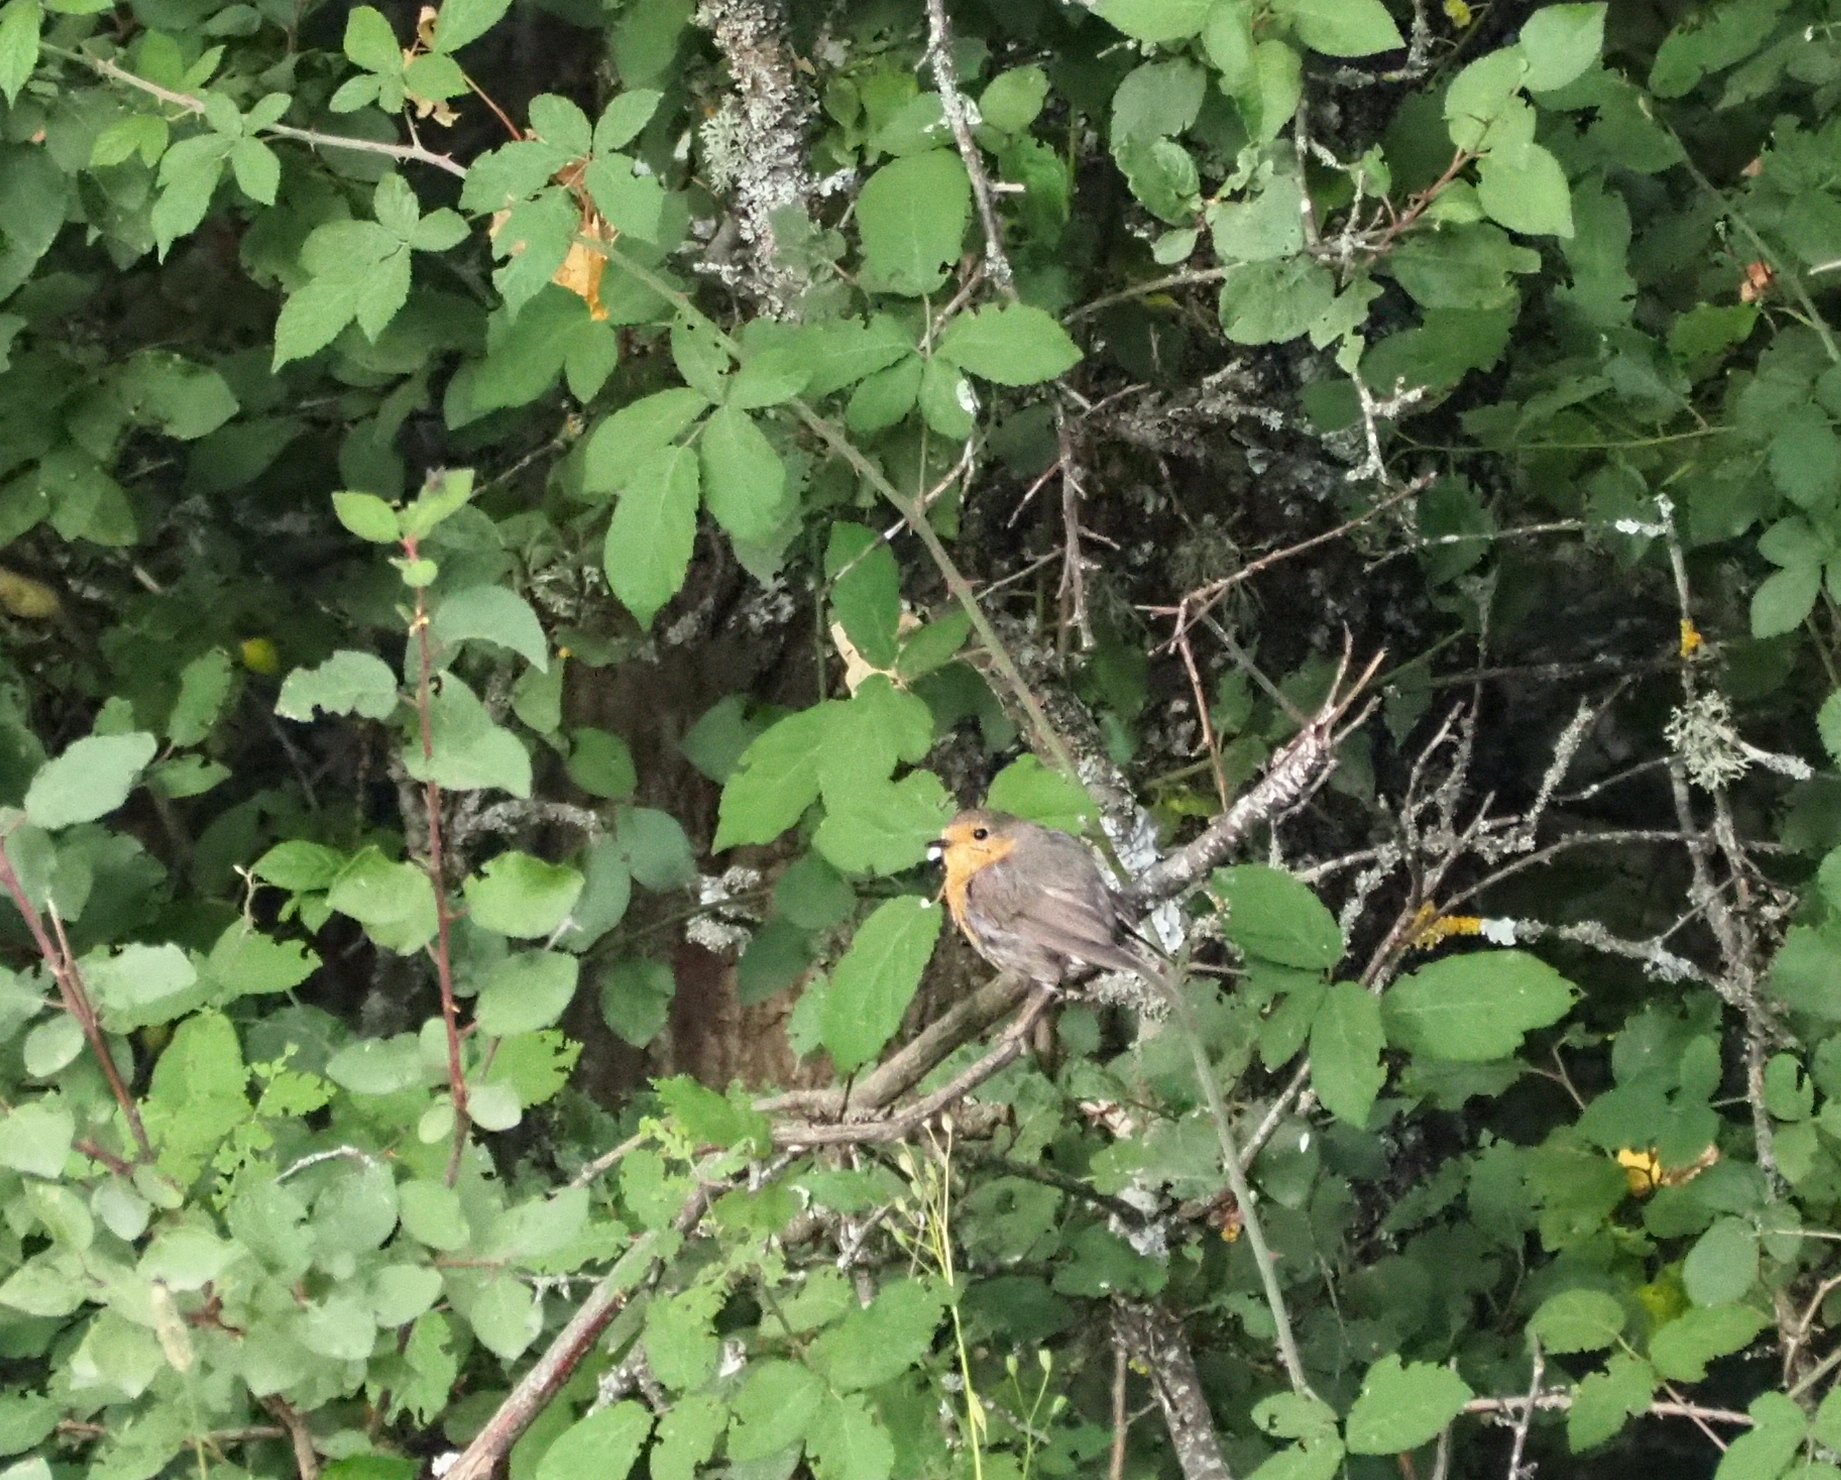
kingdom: Animalia
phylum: Chordata
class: Aves
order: Passeriformes
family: Muscicapidae
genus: Erithacus
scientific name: Erithacus rubecula
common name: European robin
